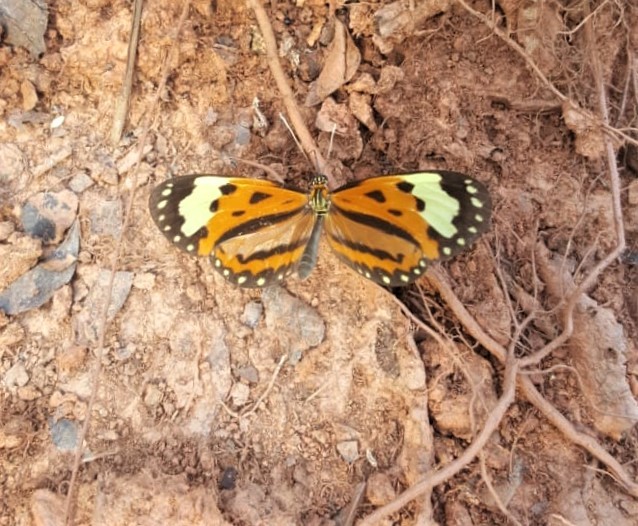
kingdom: Animalia
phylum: Arthropoda
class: Insecta
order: Lepidoptera
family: Nymphalidae
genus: Hypothyris
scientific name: Hypothyris ninonia
